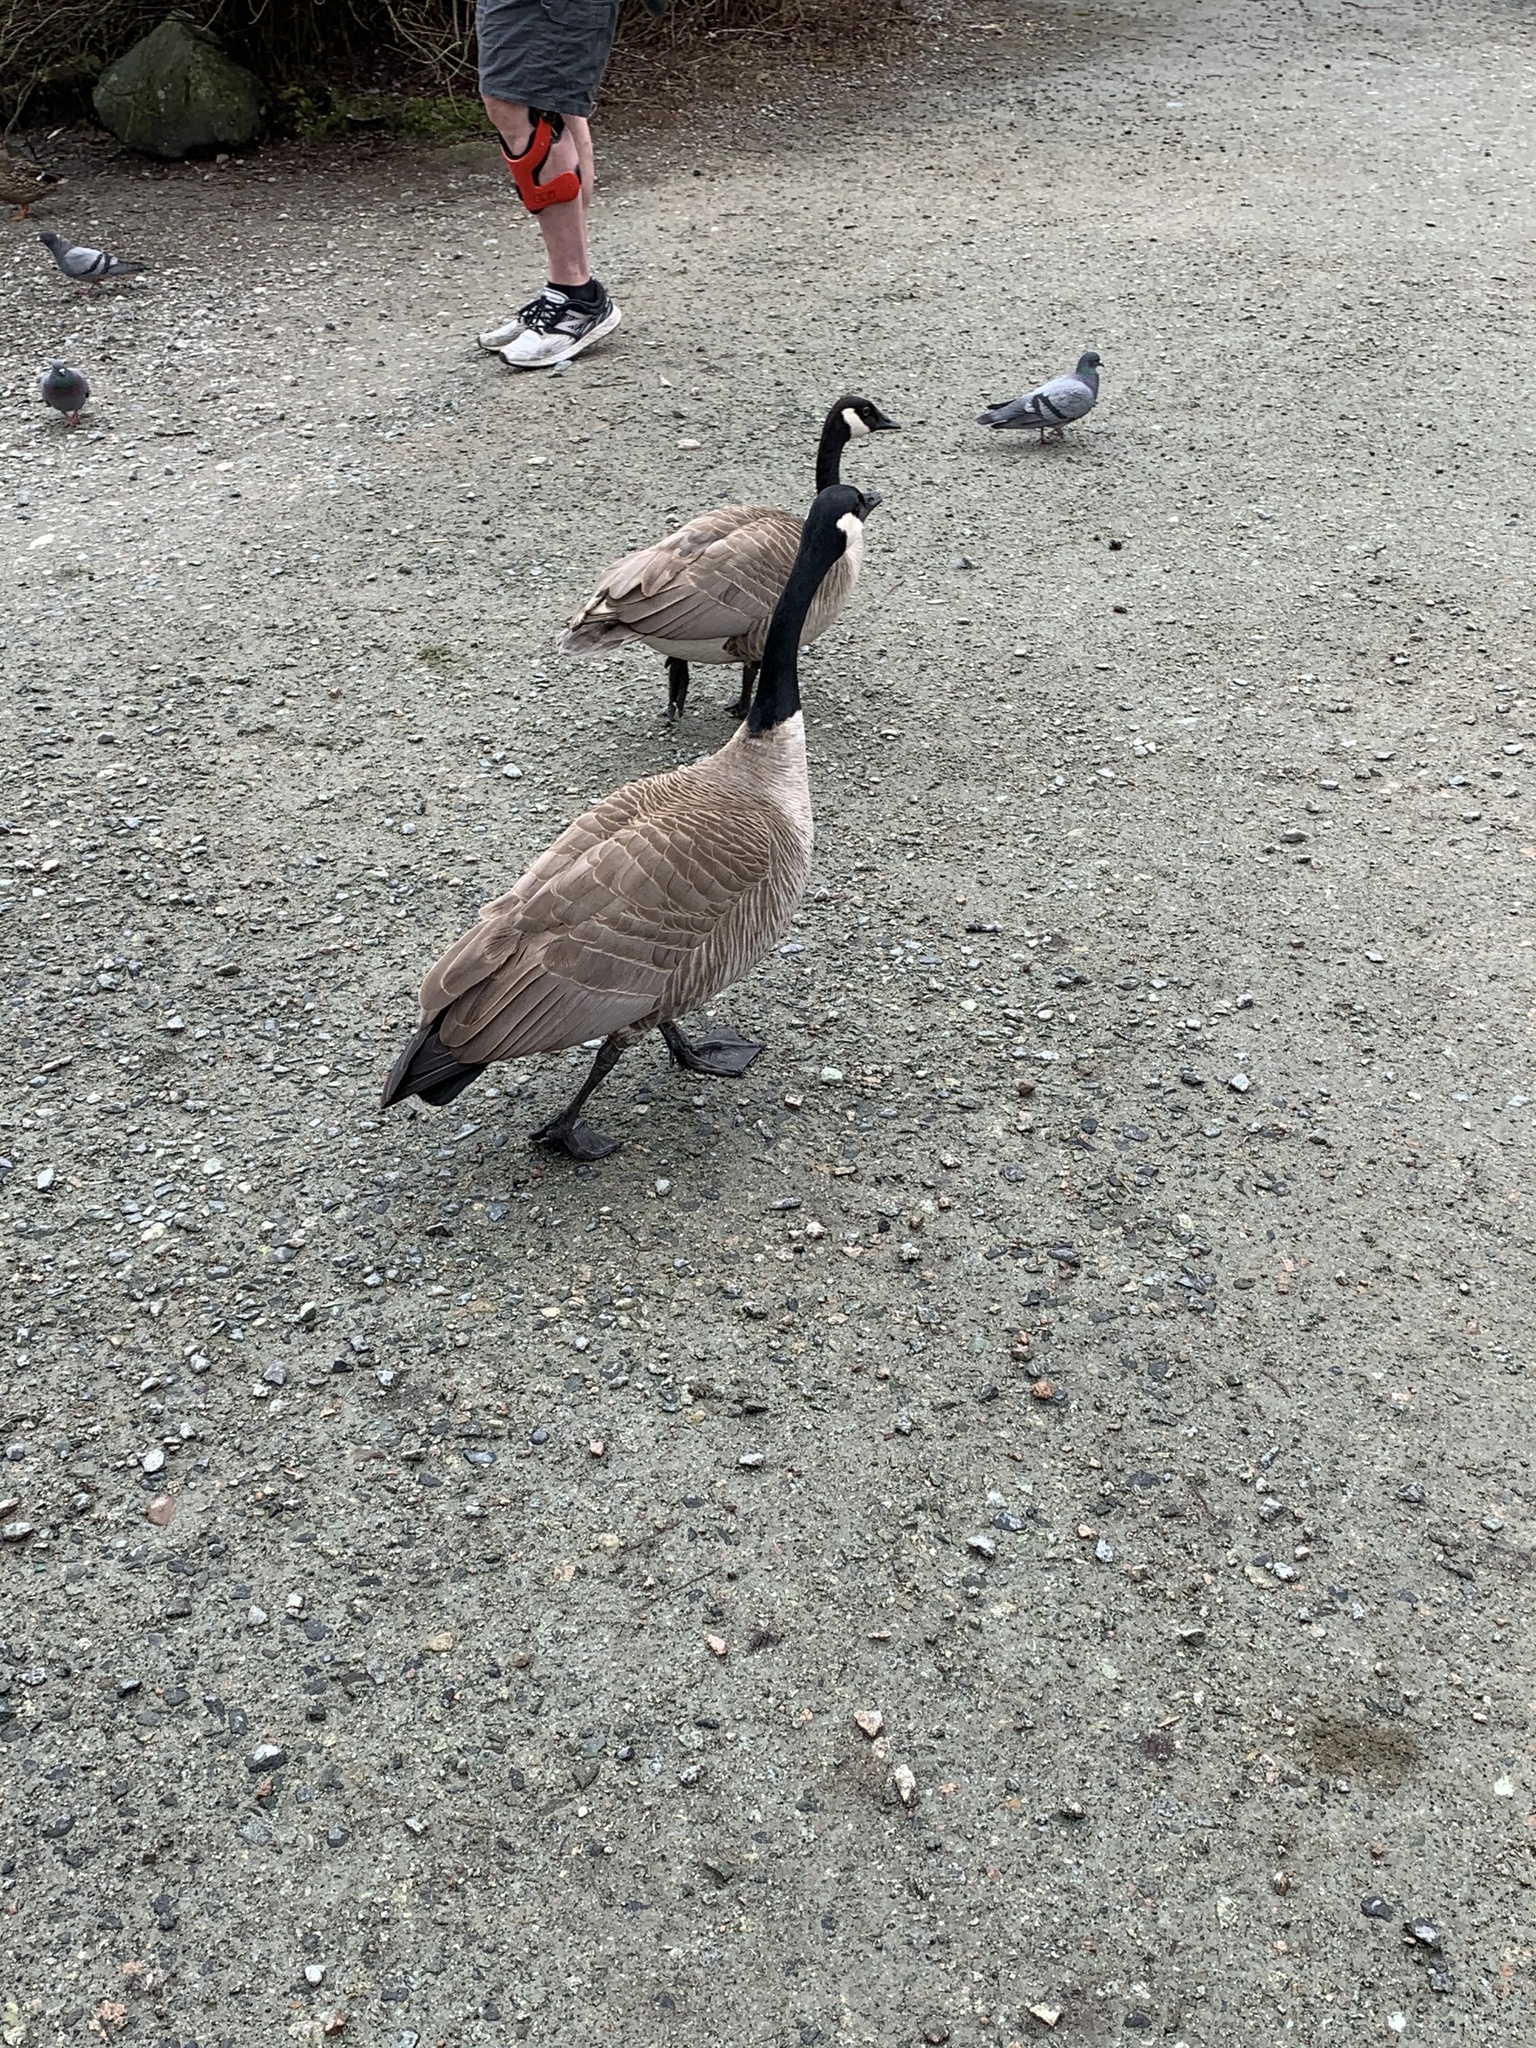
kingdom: Animalia
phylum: Chordata
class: Aves
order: Anseriformes
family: Anatidae
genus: Branta
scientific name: Branta canadensis
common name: Canada goose
